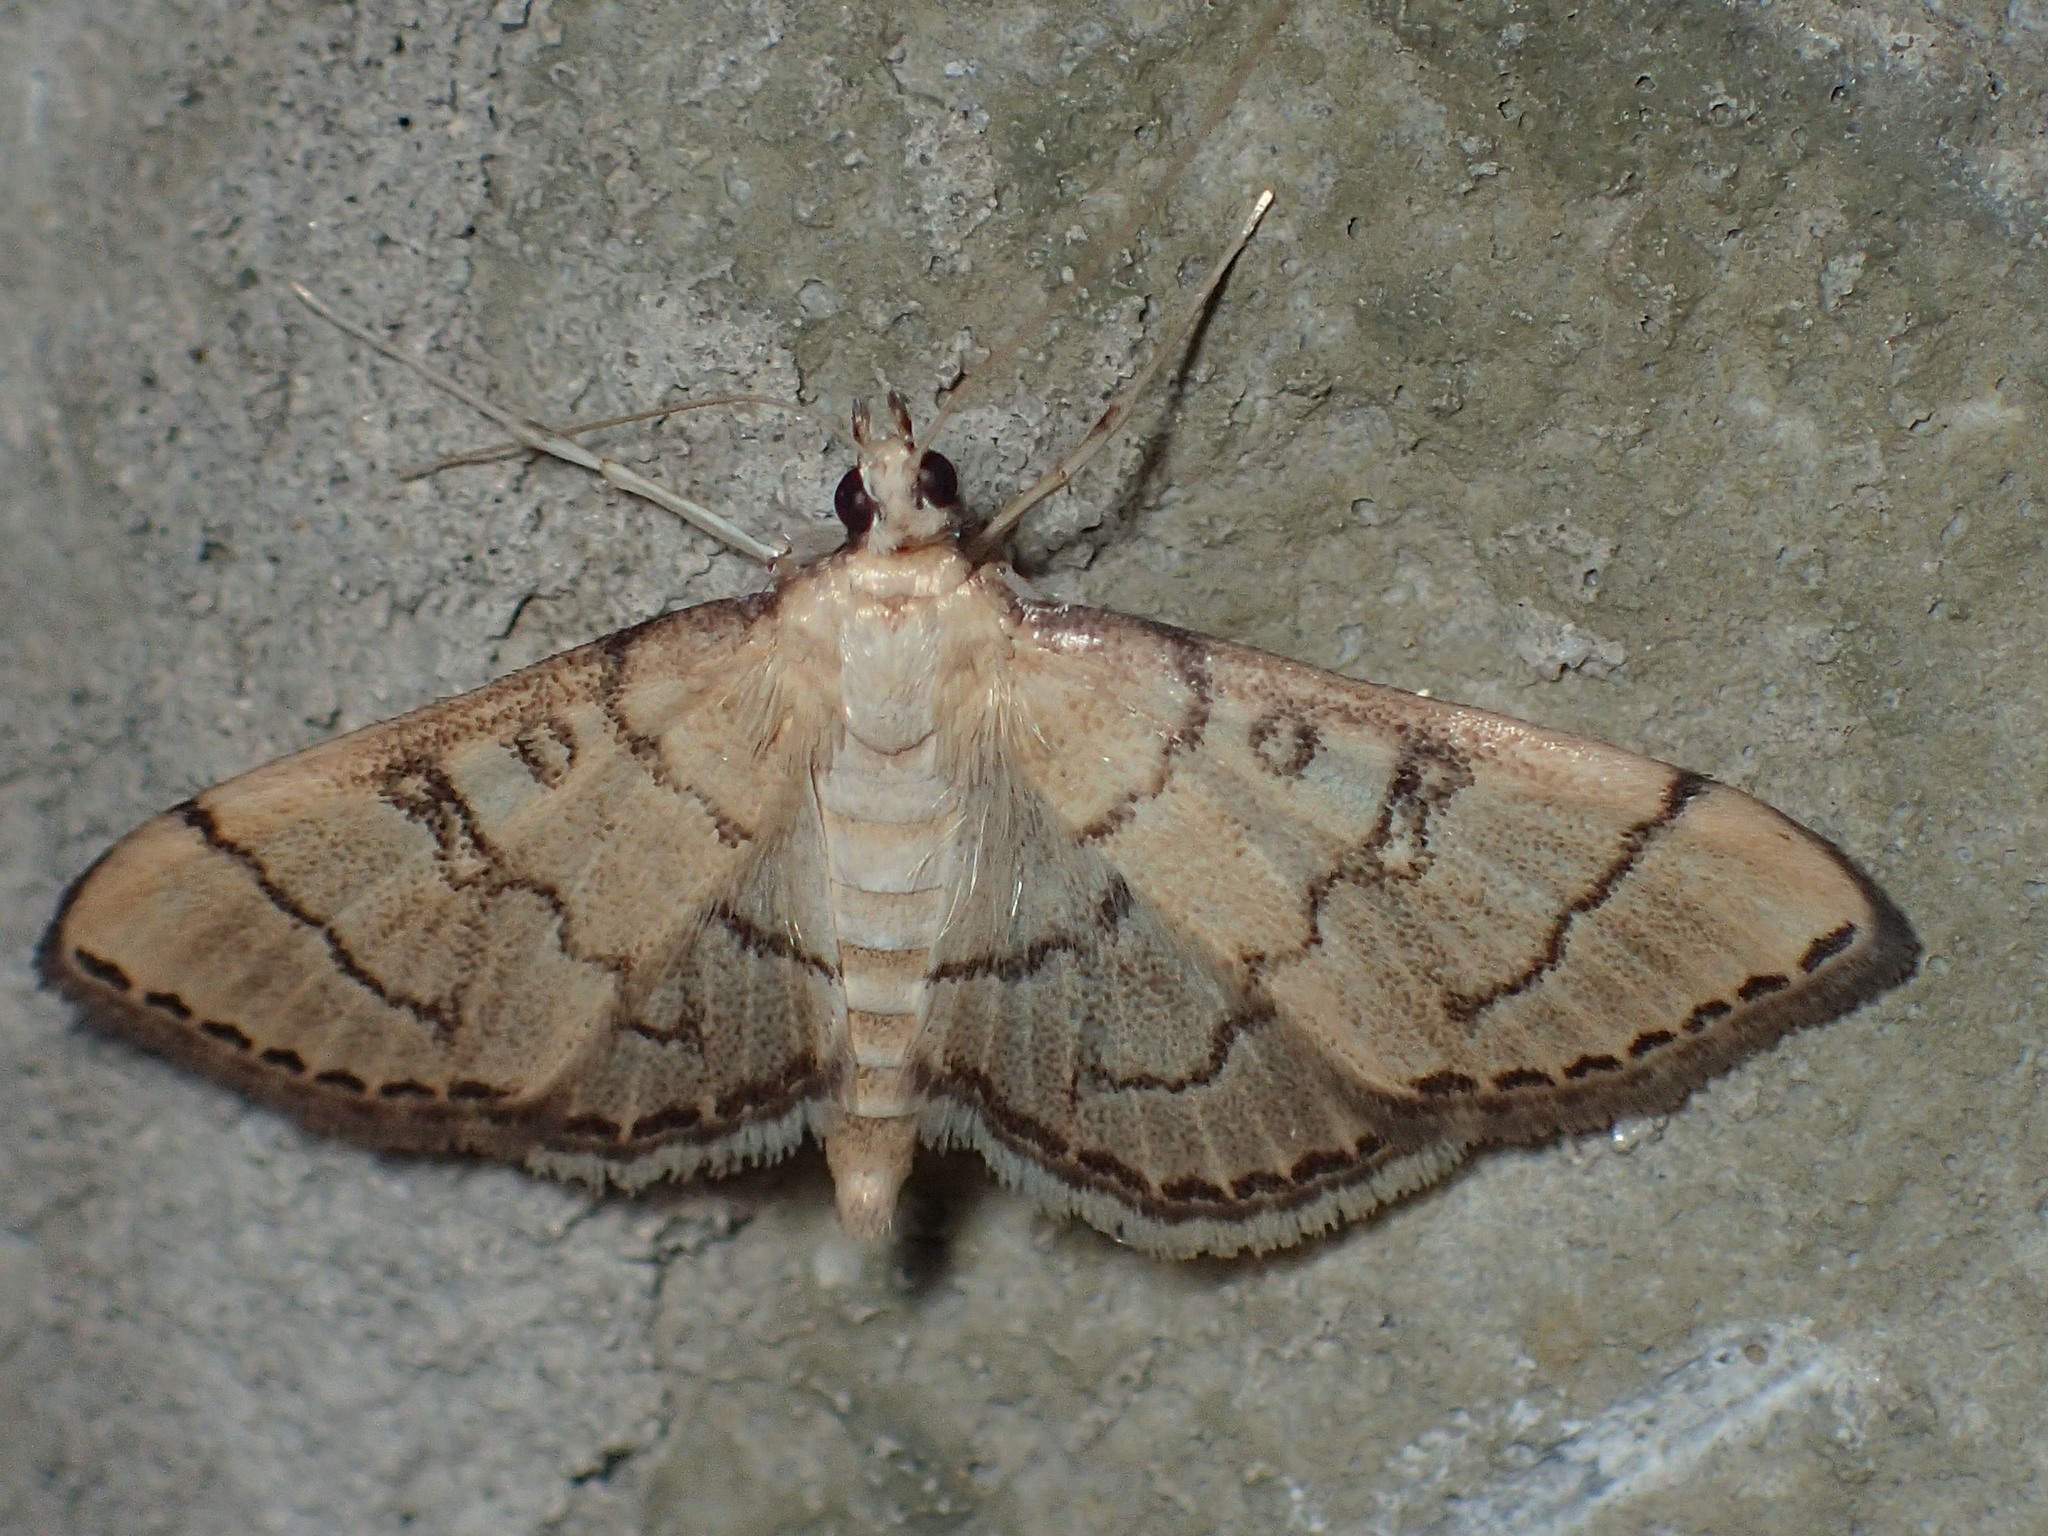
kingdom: Animalia
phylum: Arthropoda
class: Insecta
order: Lepidoptera
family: Crambidae
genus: Lamprosema
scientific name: Lamprosema Blepharomastix ranalis
